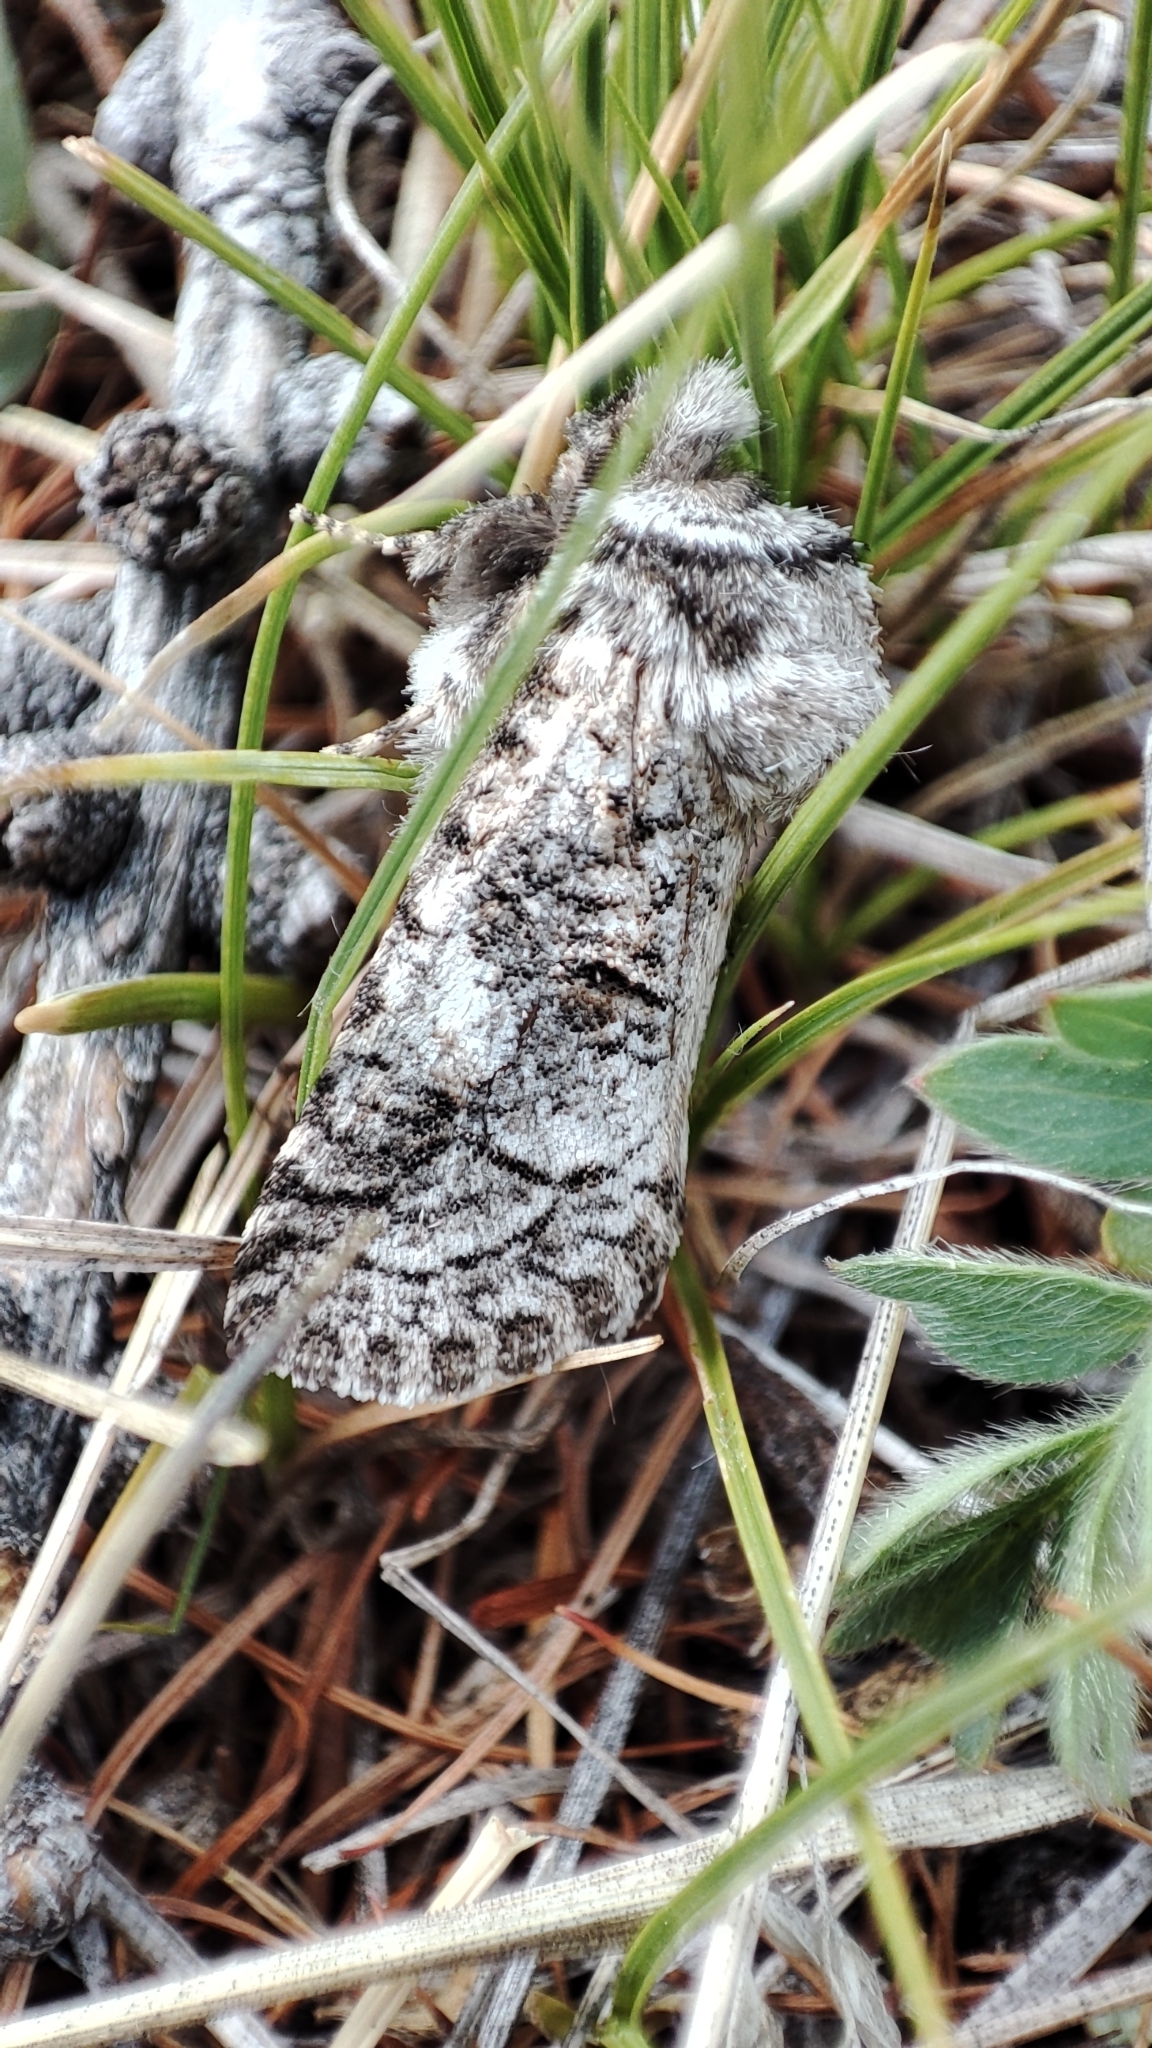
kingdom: Animalia
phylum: Arthropoda
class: Insecta
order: Lepidoptera
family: Cossidae
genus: Catopta
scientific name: Catopta perunovi
